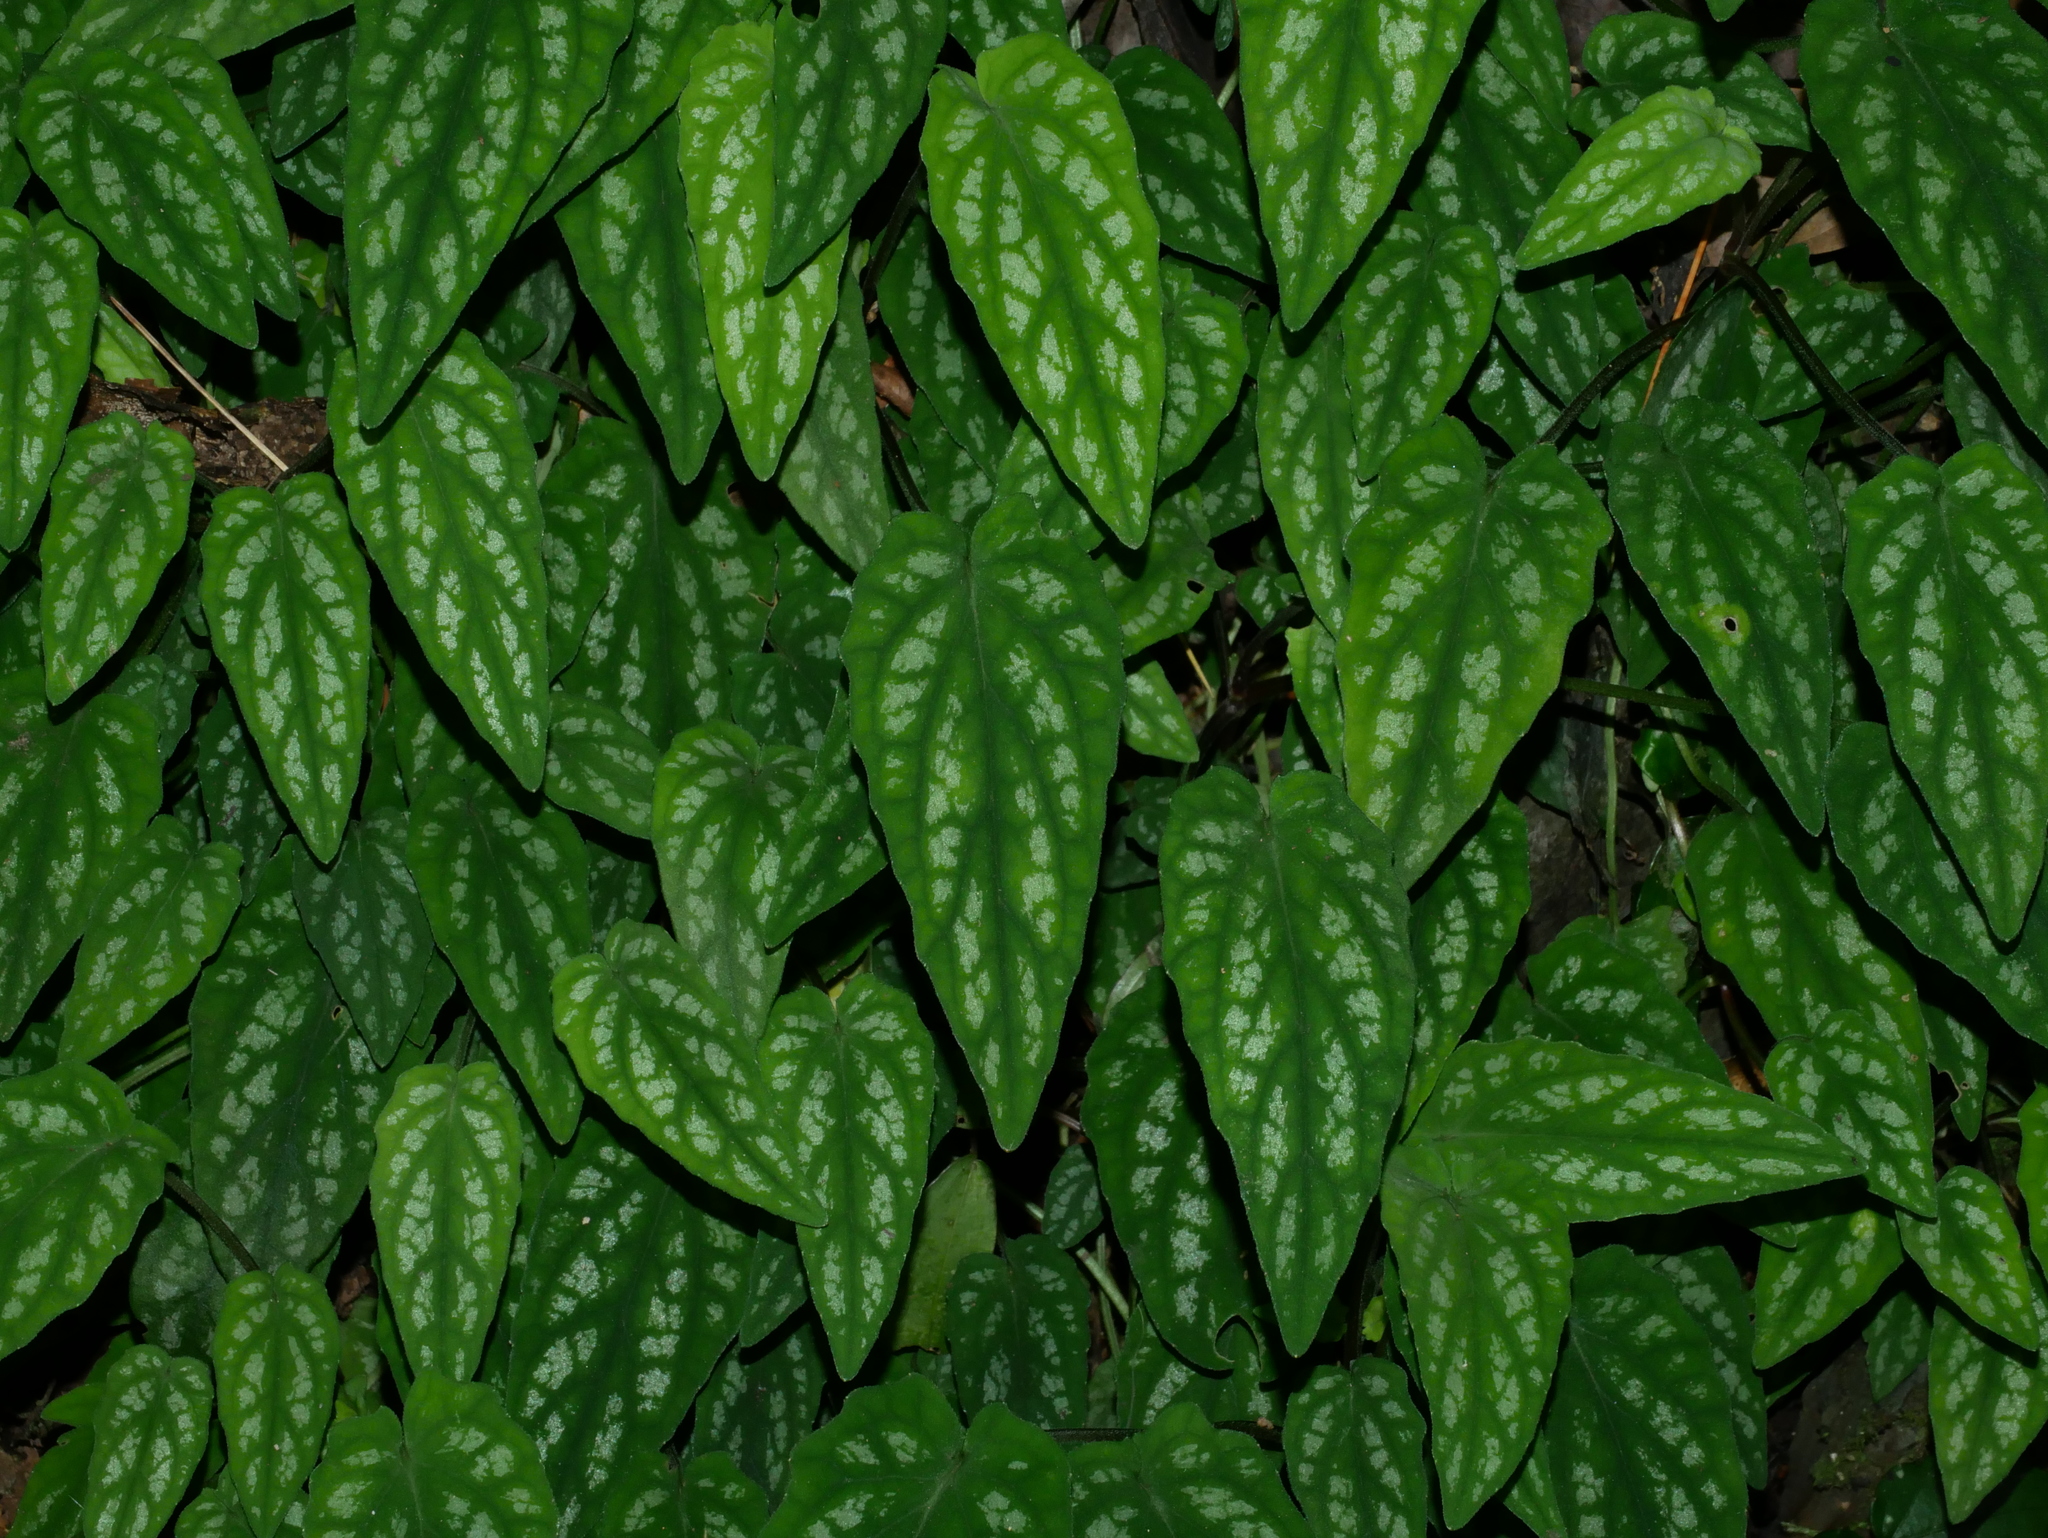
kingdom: Plantae
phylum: Tracheophyta
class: Magnoliopsida
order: Dipsacales
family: Caprifoliaceae
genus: Valeriana
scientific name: Valeriana hsui
